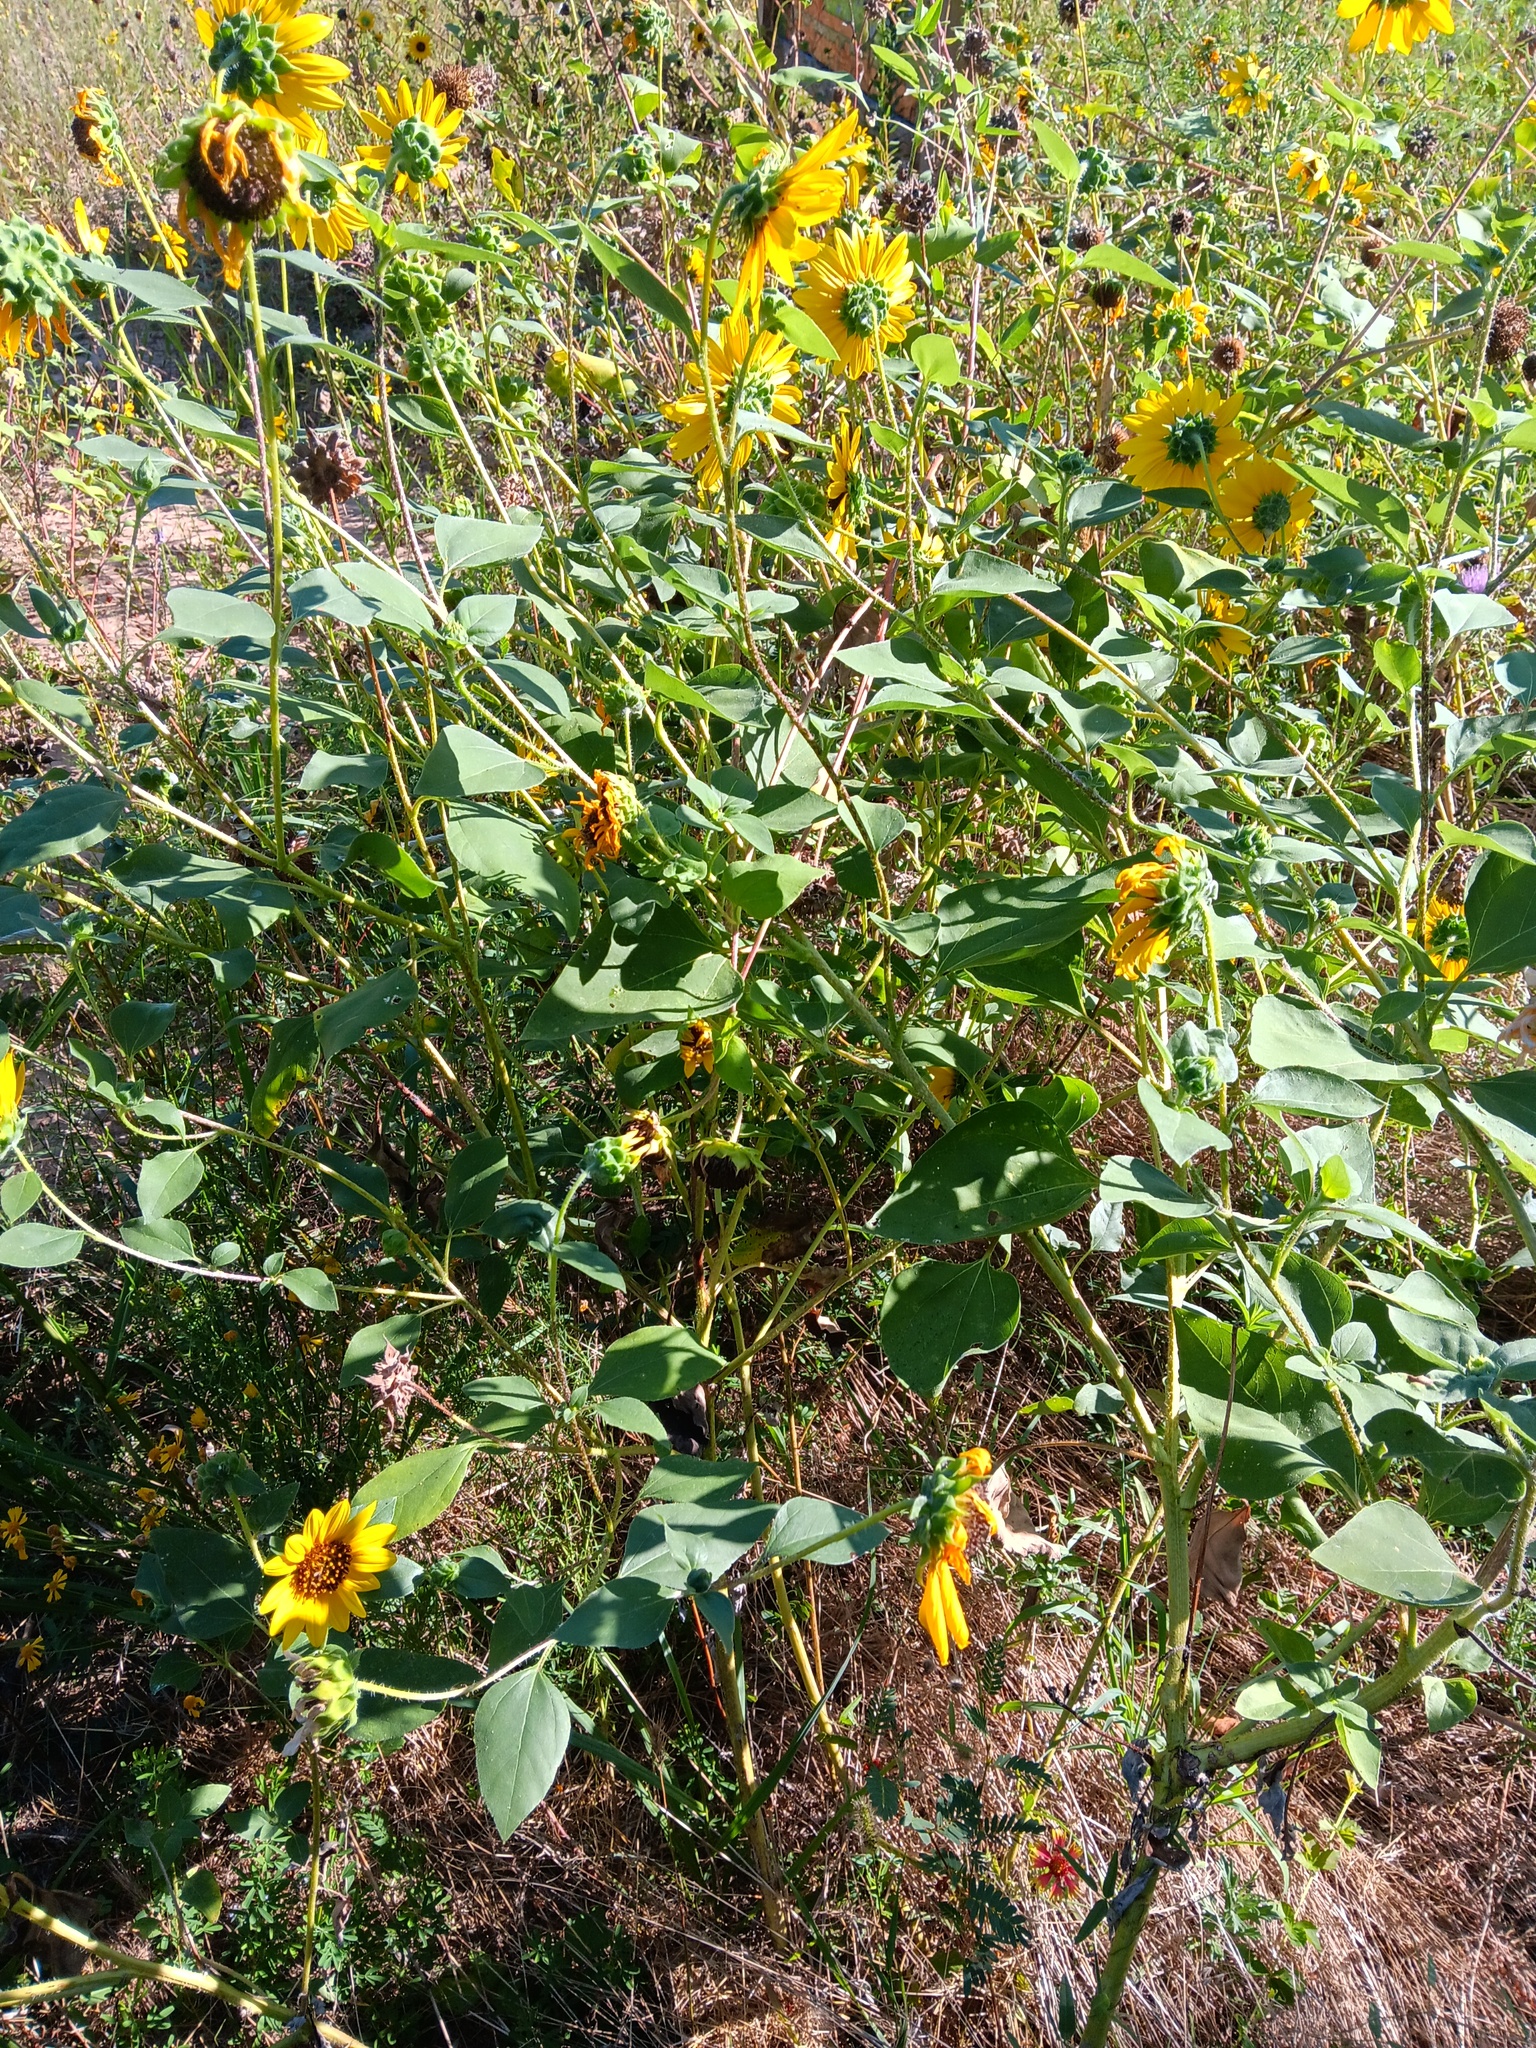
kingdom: Plantae
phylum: Tracheophyta
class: Magnoliopsida
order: Asterales
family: Asteraceae
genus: Helianthus
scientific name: Helianthus annuus
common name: Sunflower
